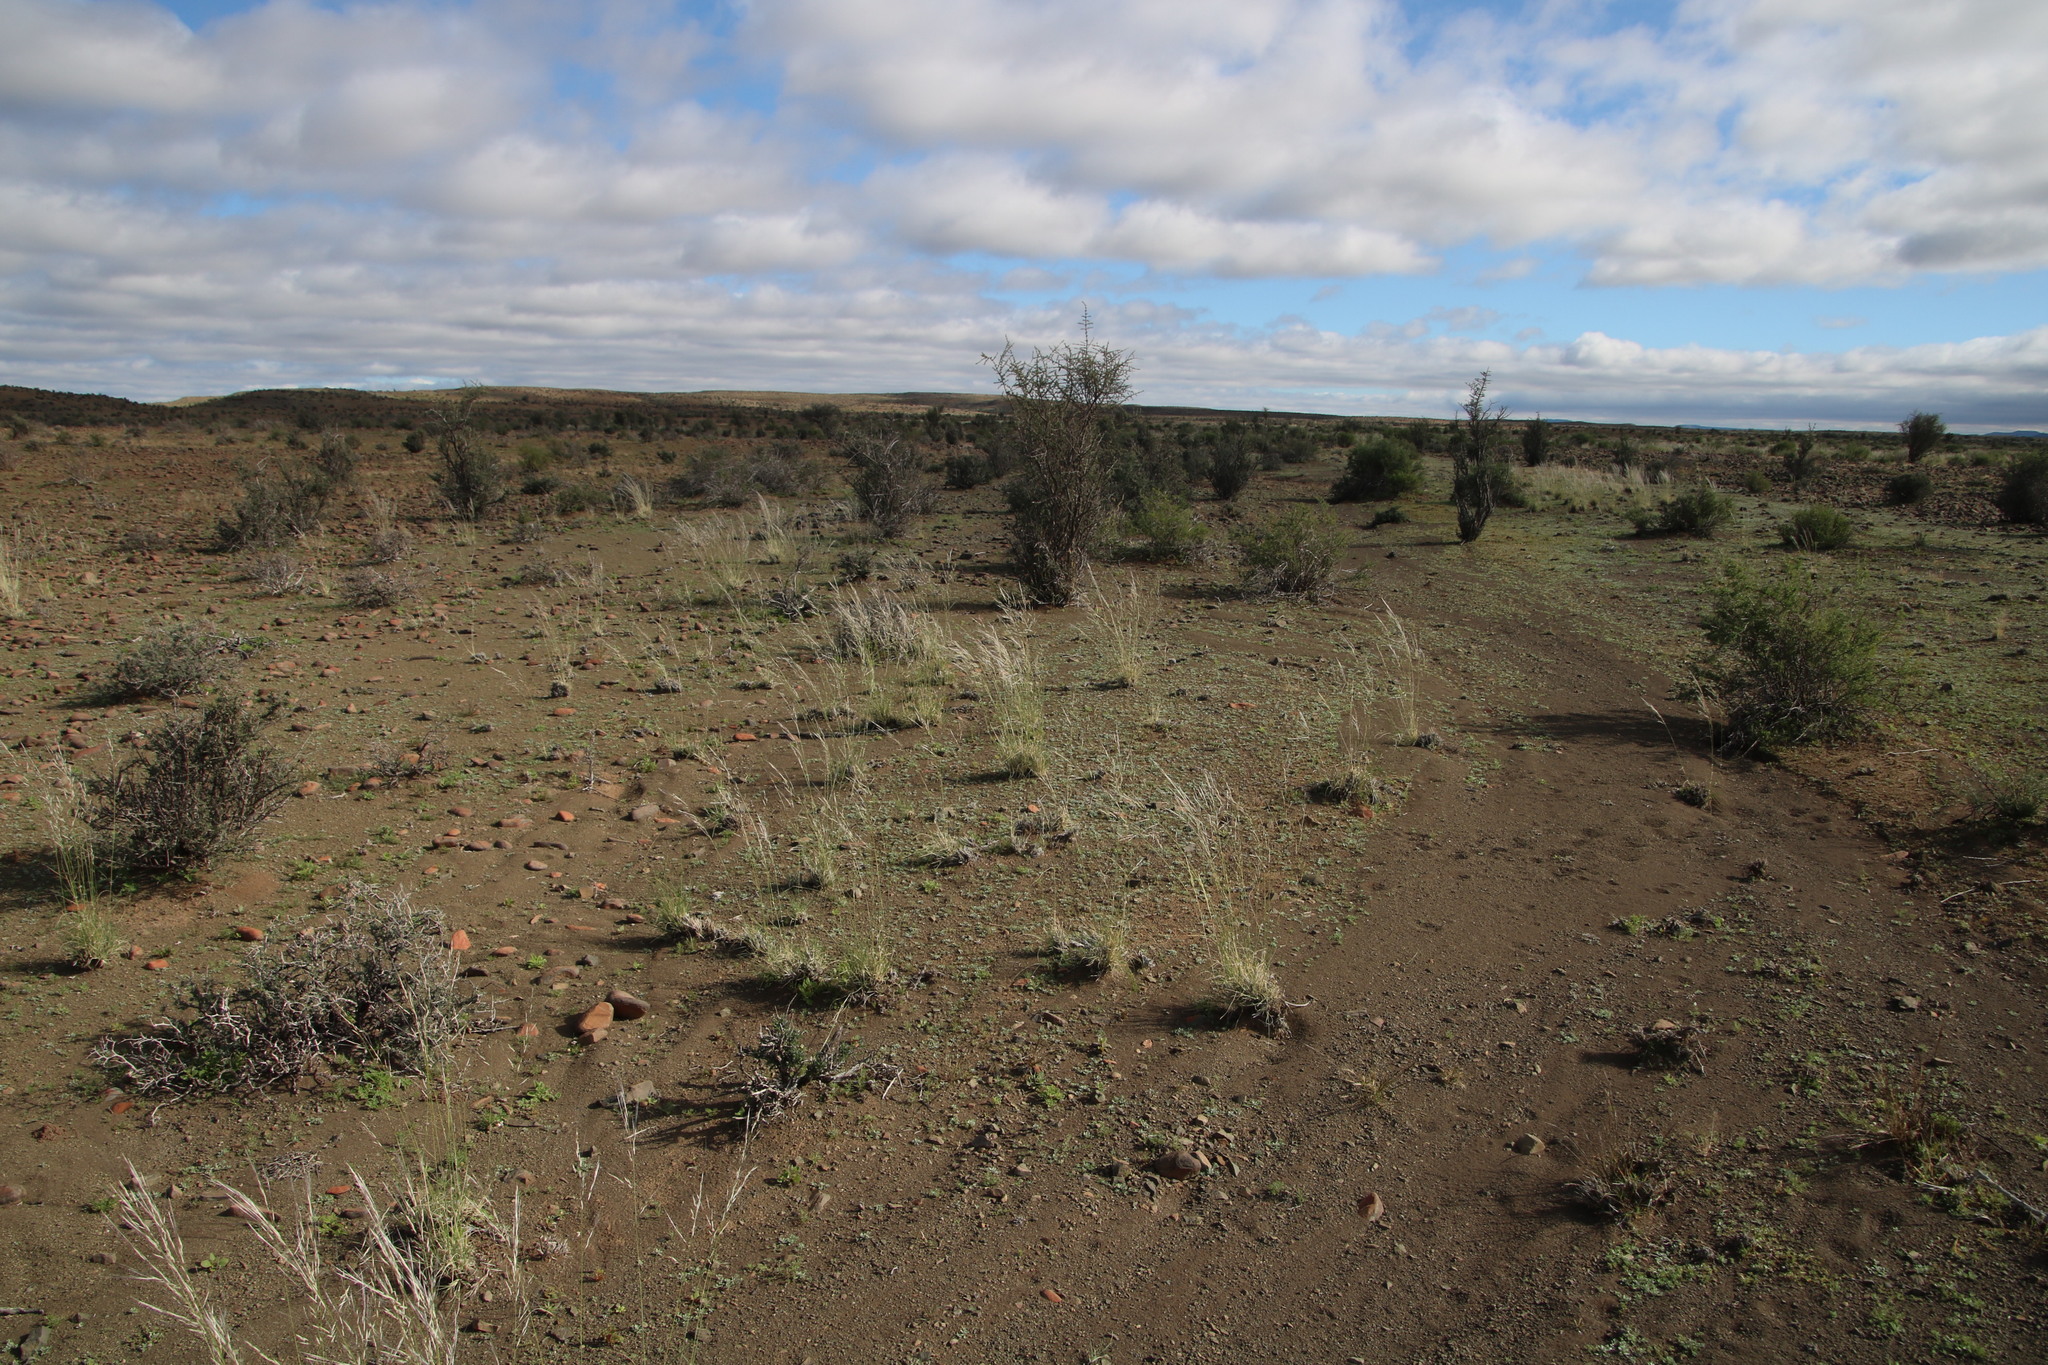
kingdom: Plantae
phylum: Tracheophyta
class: Liliopsida
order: Poales
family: Poaceae
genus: Stipagrostis
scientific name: Stipagrostis ciliata
